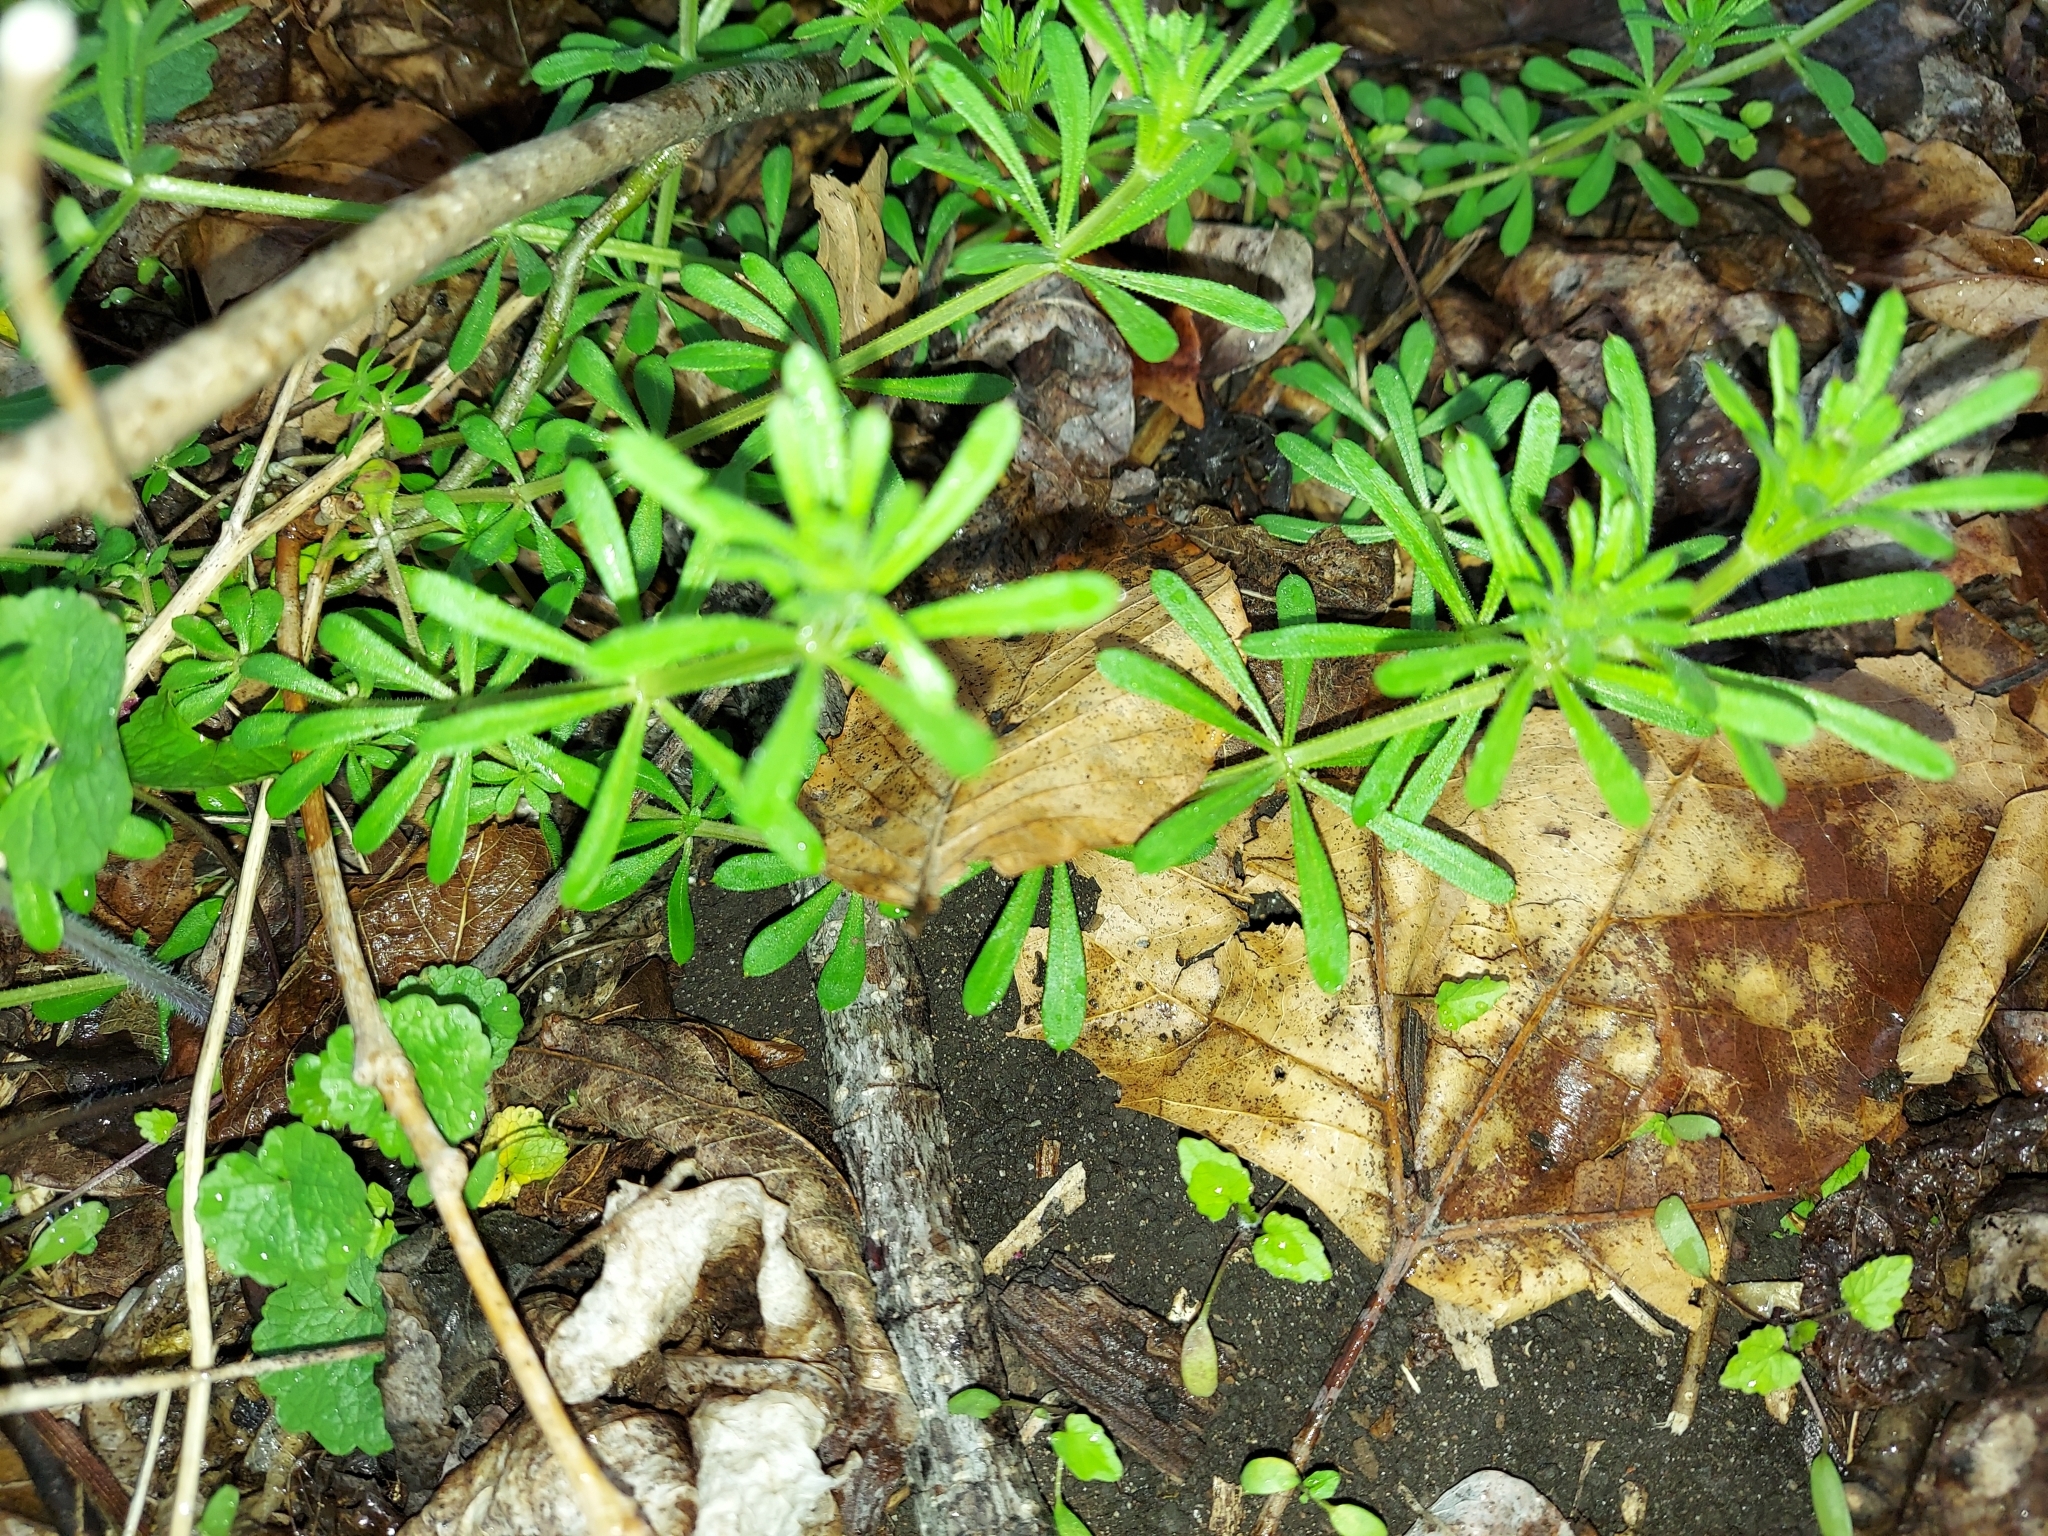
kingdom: Plantae
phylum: Tracheophyta
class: Magnoliopsida
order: Gentianales
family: Rubiaceae
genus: Galium
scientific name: Galium aparine
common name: Cleavers
